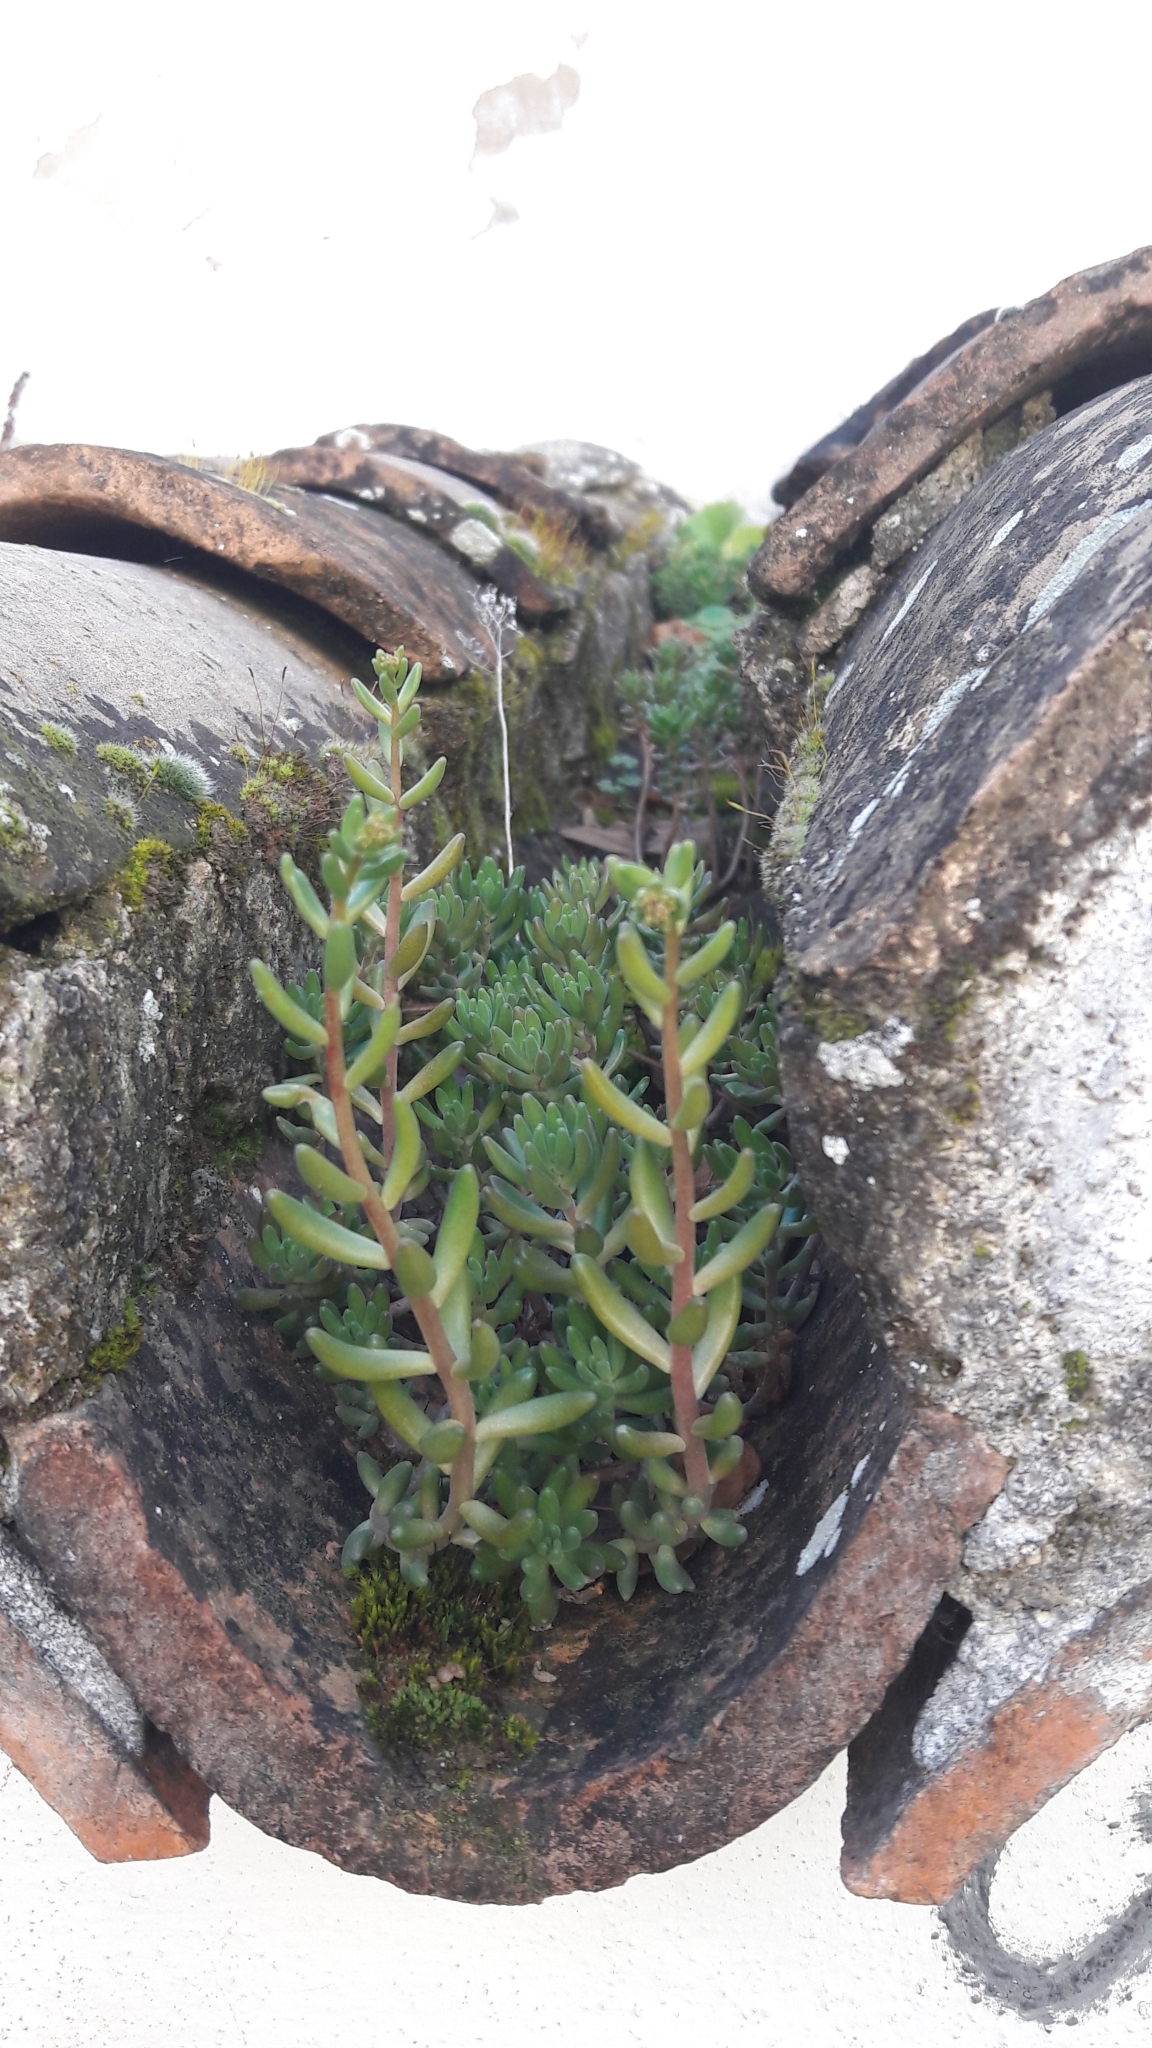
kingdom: Plantae
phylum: Tracheophyta
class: Magnoliopsida
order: Saxifragales
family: Crassulaceae
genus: Sedum
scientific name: Sedum album
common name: White stonecrop
